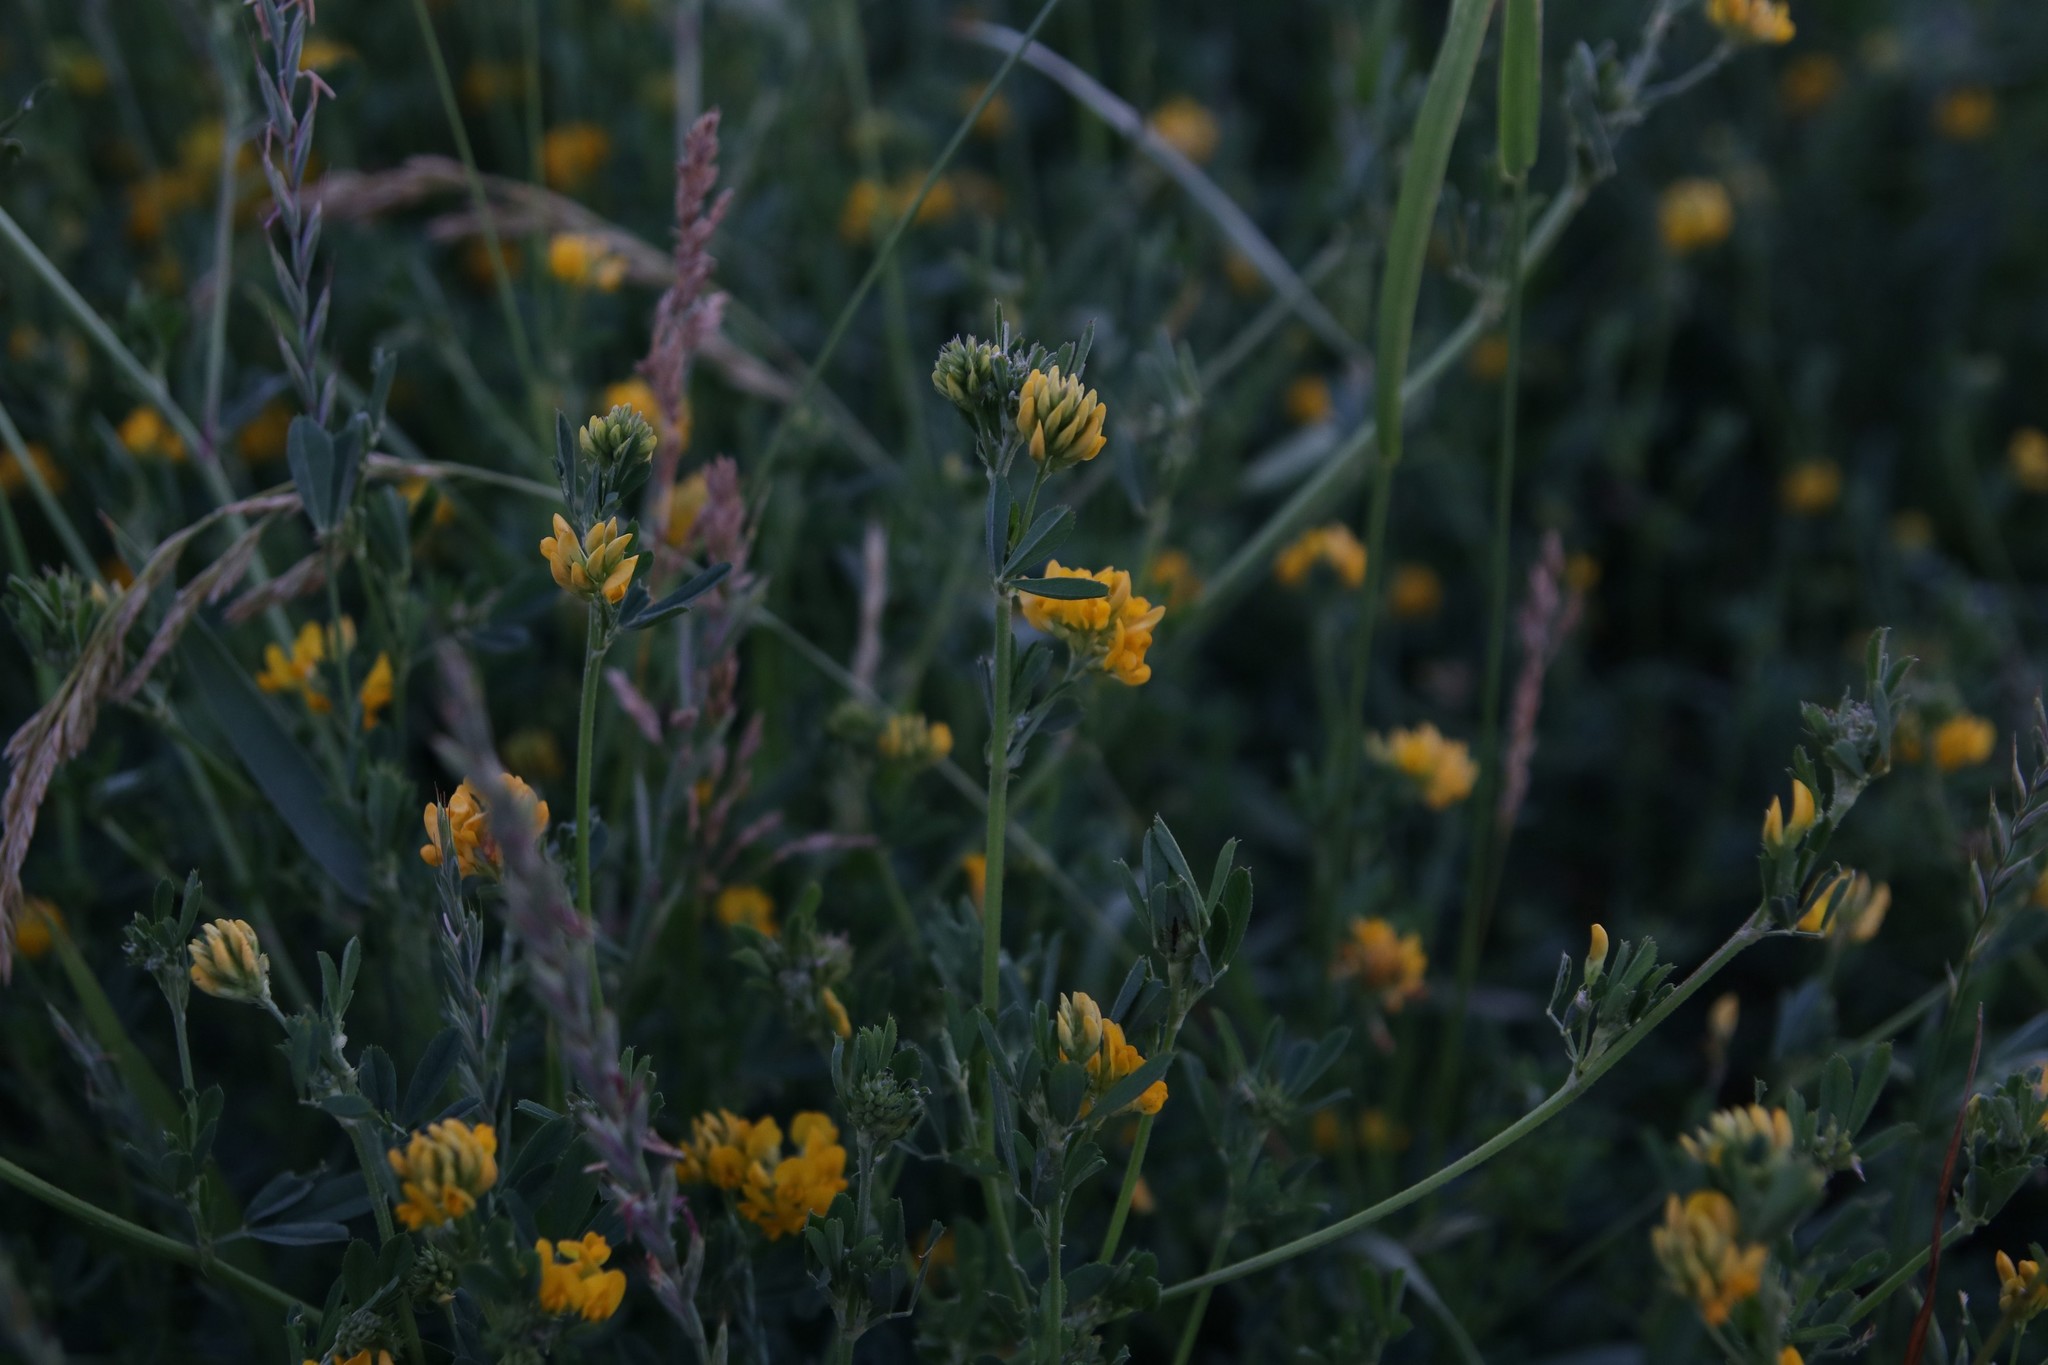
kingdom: Plantae
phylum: Tracheophyta
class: Magnoliopsida
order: Fabales
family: Fabaceae
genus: Medicago
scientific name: Medicago falcata
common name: Sickle medick
